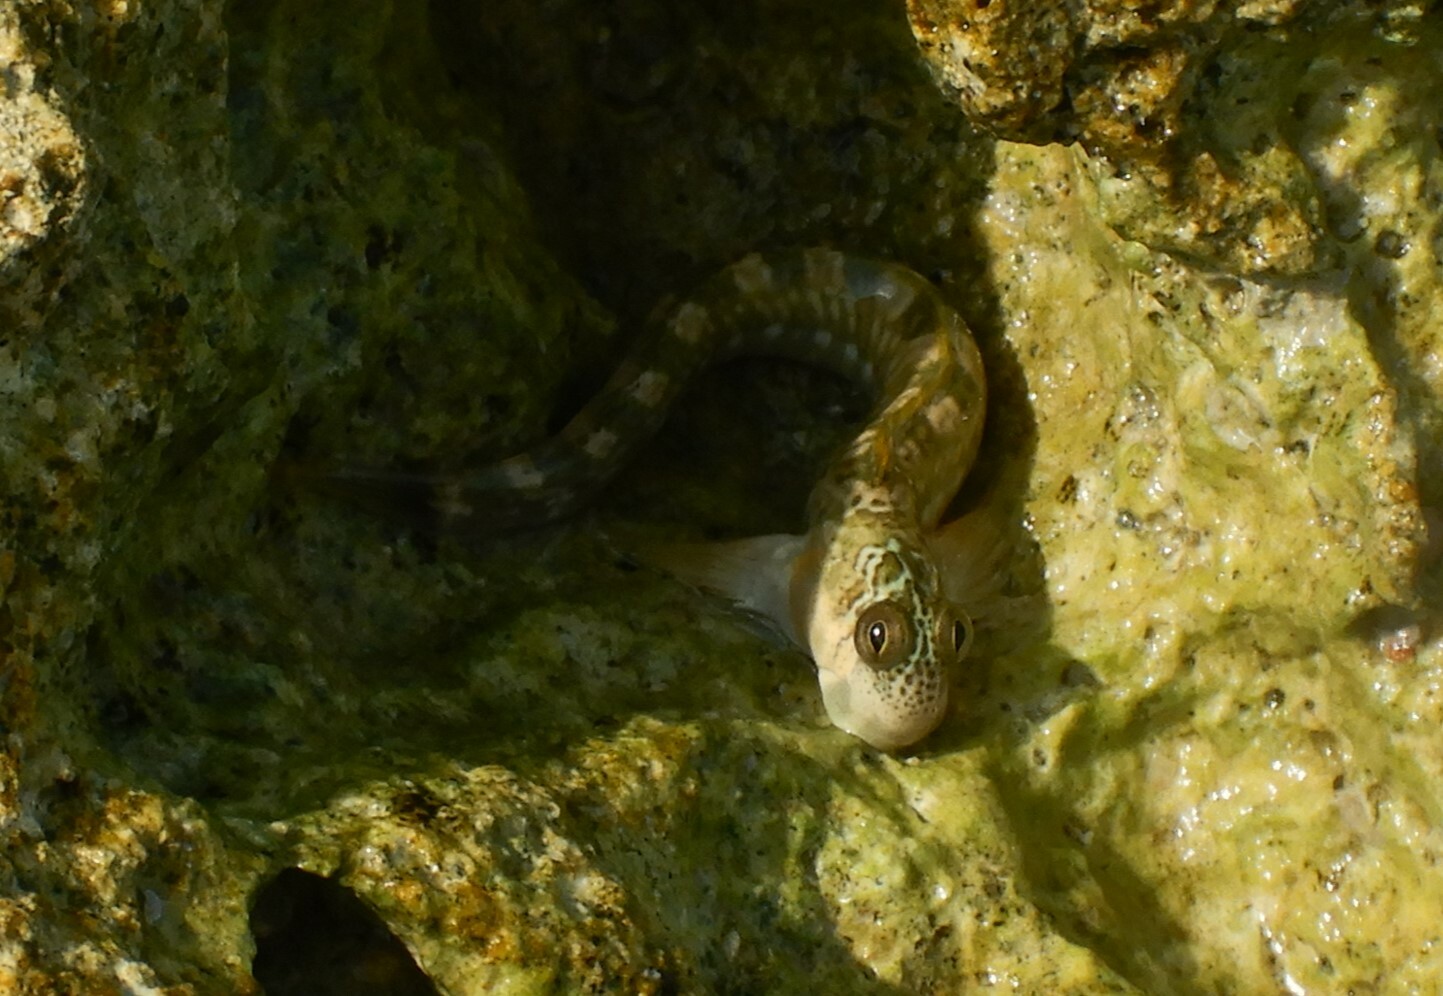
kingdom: Animalia
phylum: Chordata
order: Perciformes
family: Blenniidae
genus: Alticus
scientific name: Alticus magnusi
